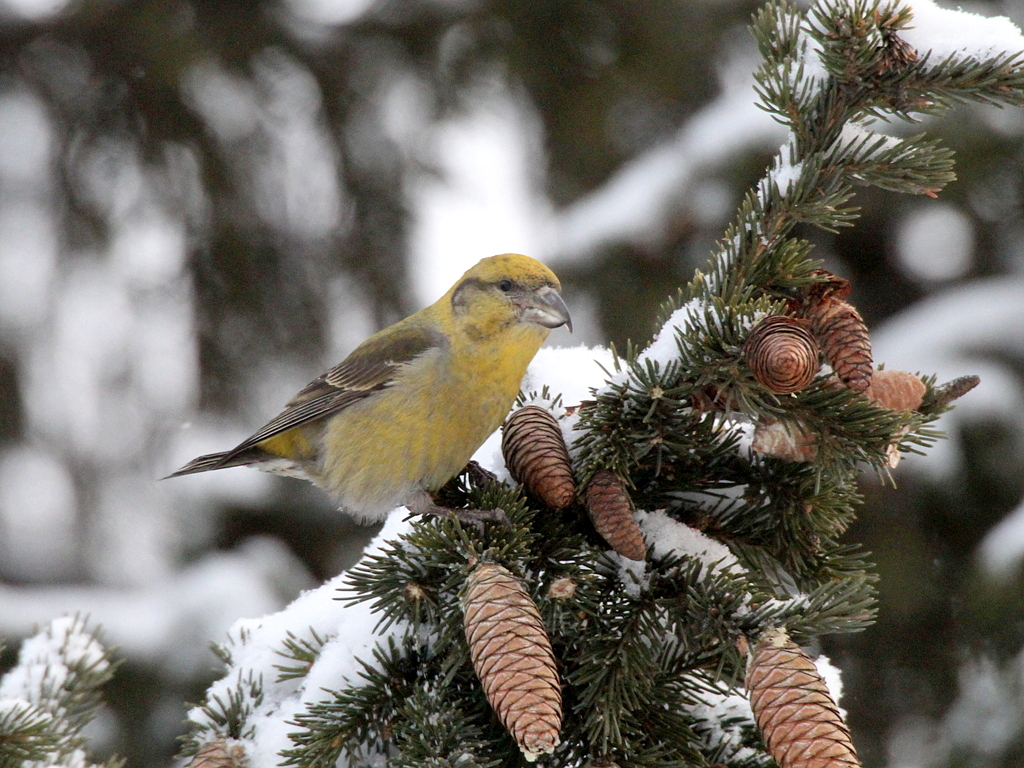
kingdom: Animalia
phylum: Chordata
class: Aves
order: Passeriformes
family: Fringillidae
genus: Loxia
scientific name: Loxia curvirostra
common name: Red crossbill
